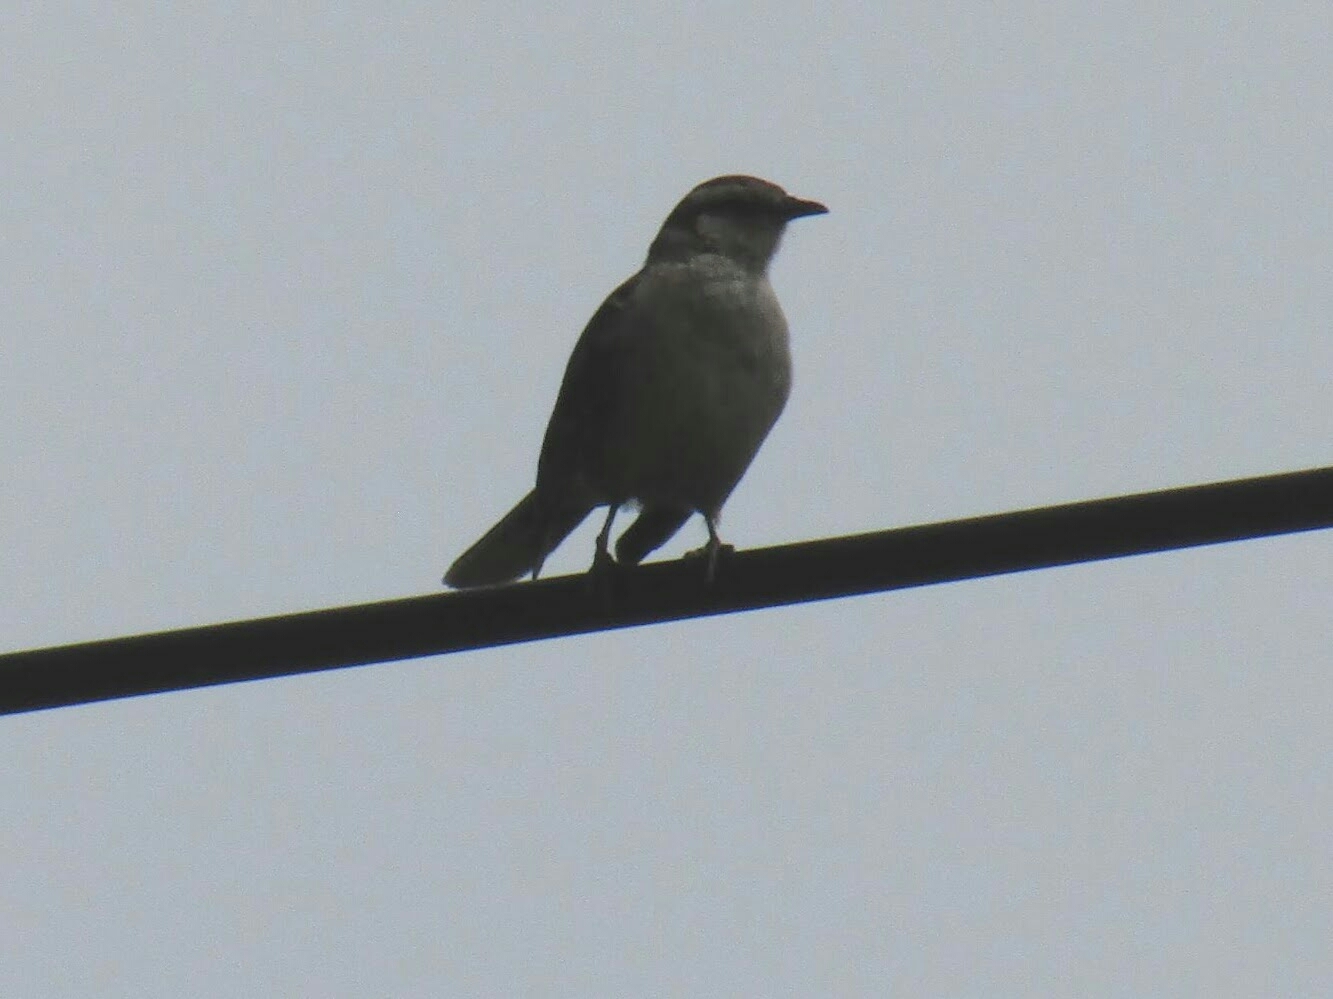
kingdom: Animalia
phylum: Chordata
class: Aves
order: Passeriformes
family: Mimidae
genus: Mimus
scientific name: Mimus saturninus
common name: Chalk-browed mockingbird
